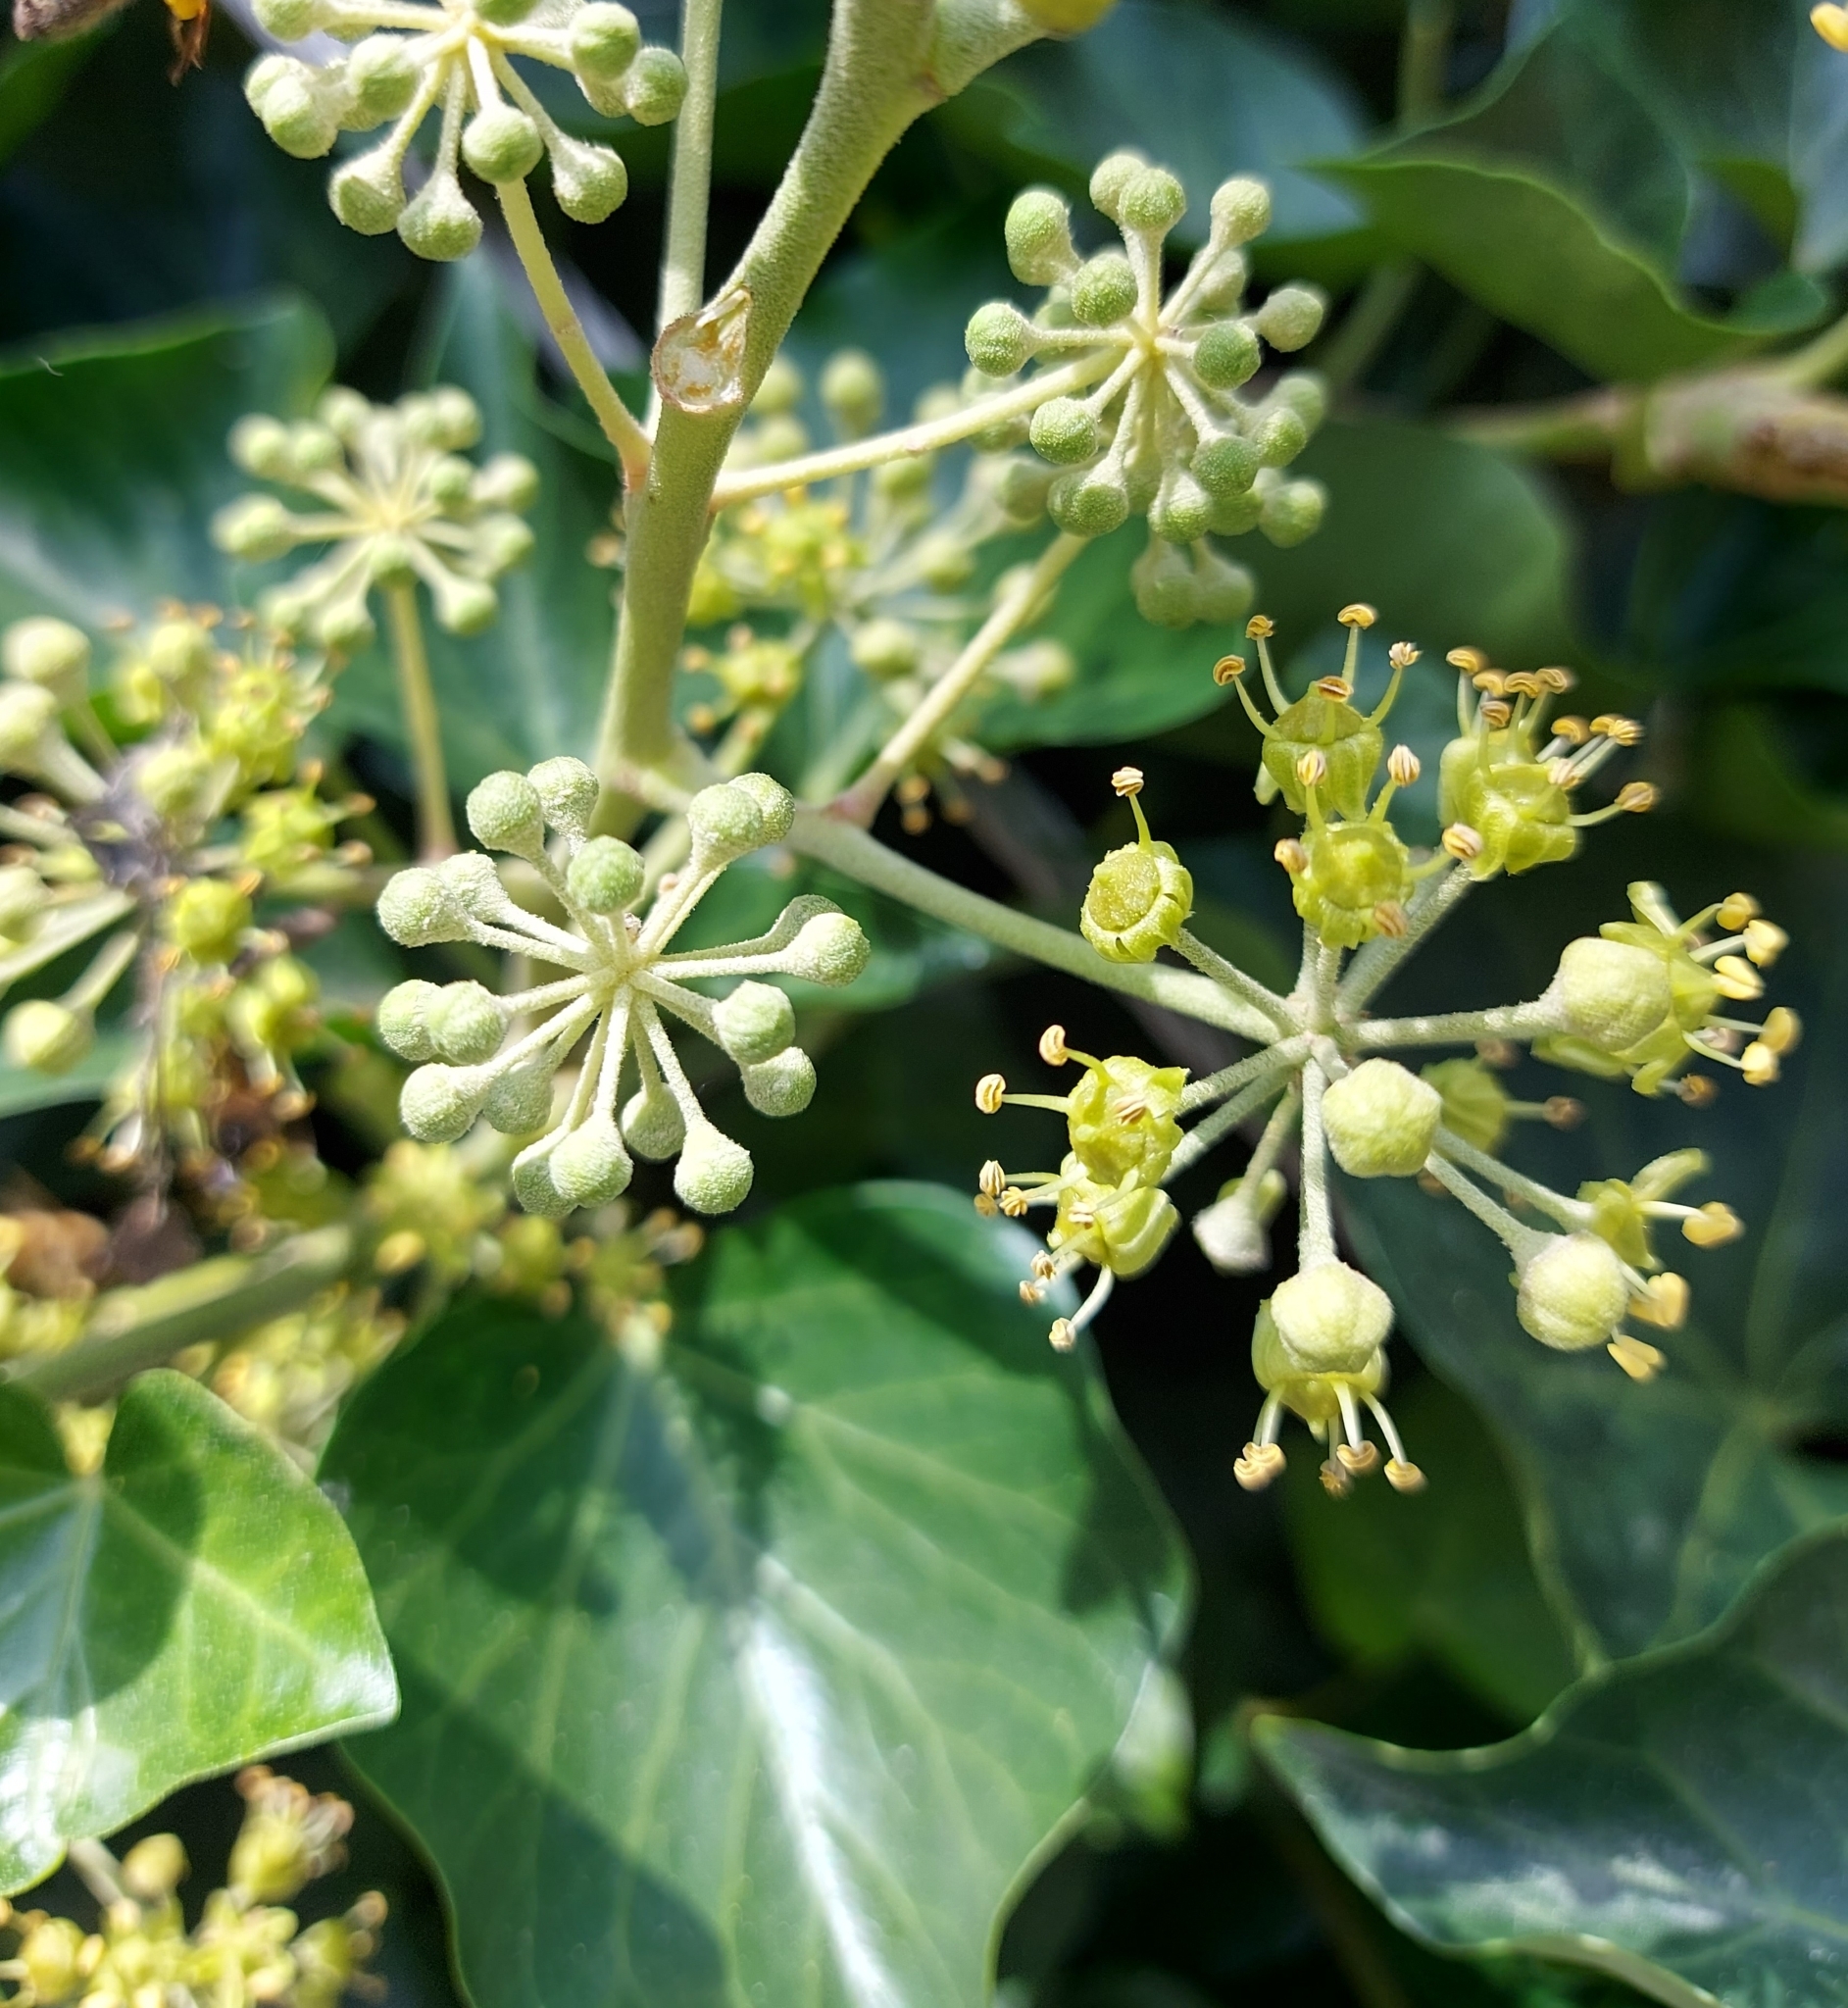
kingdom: Plantae
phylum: Tracheophyta
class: Magnoliopsida
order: Apiales
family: Araliaceae
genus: Hedera
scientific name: Hedera helix
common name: Ivy
